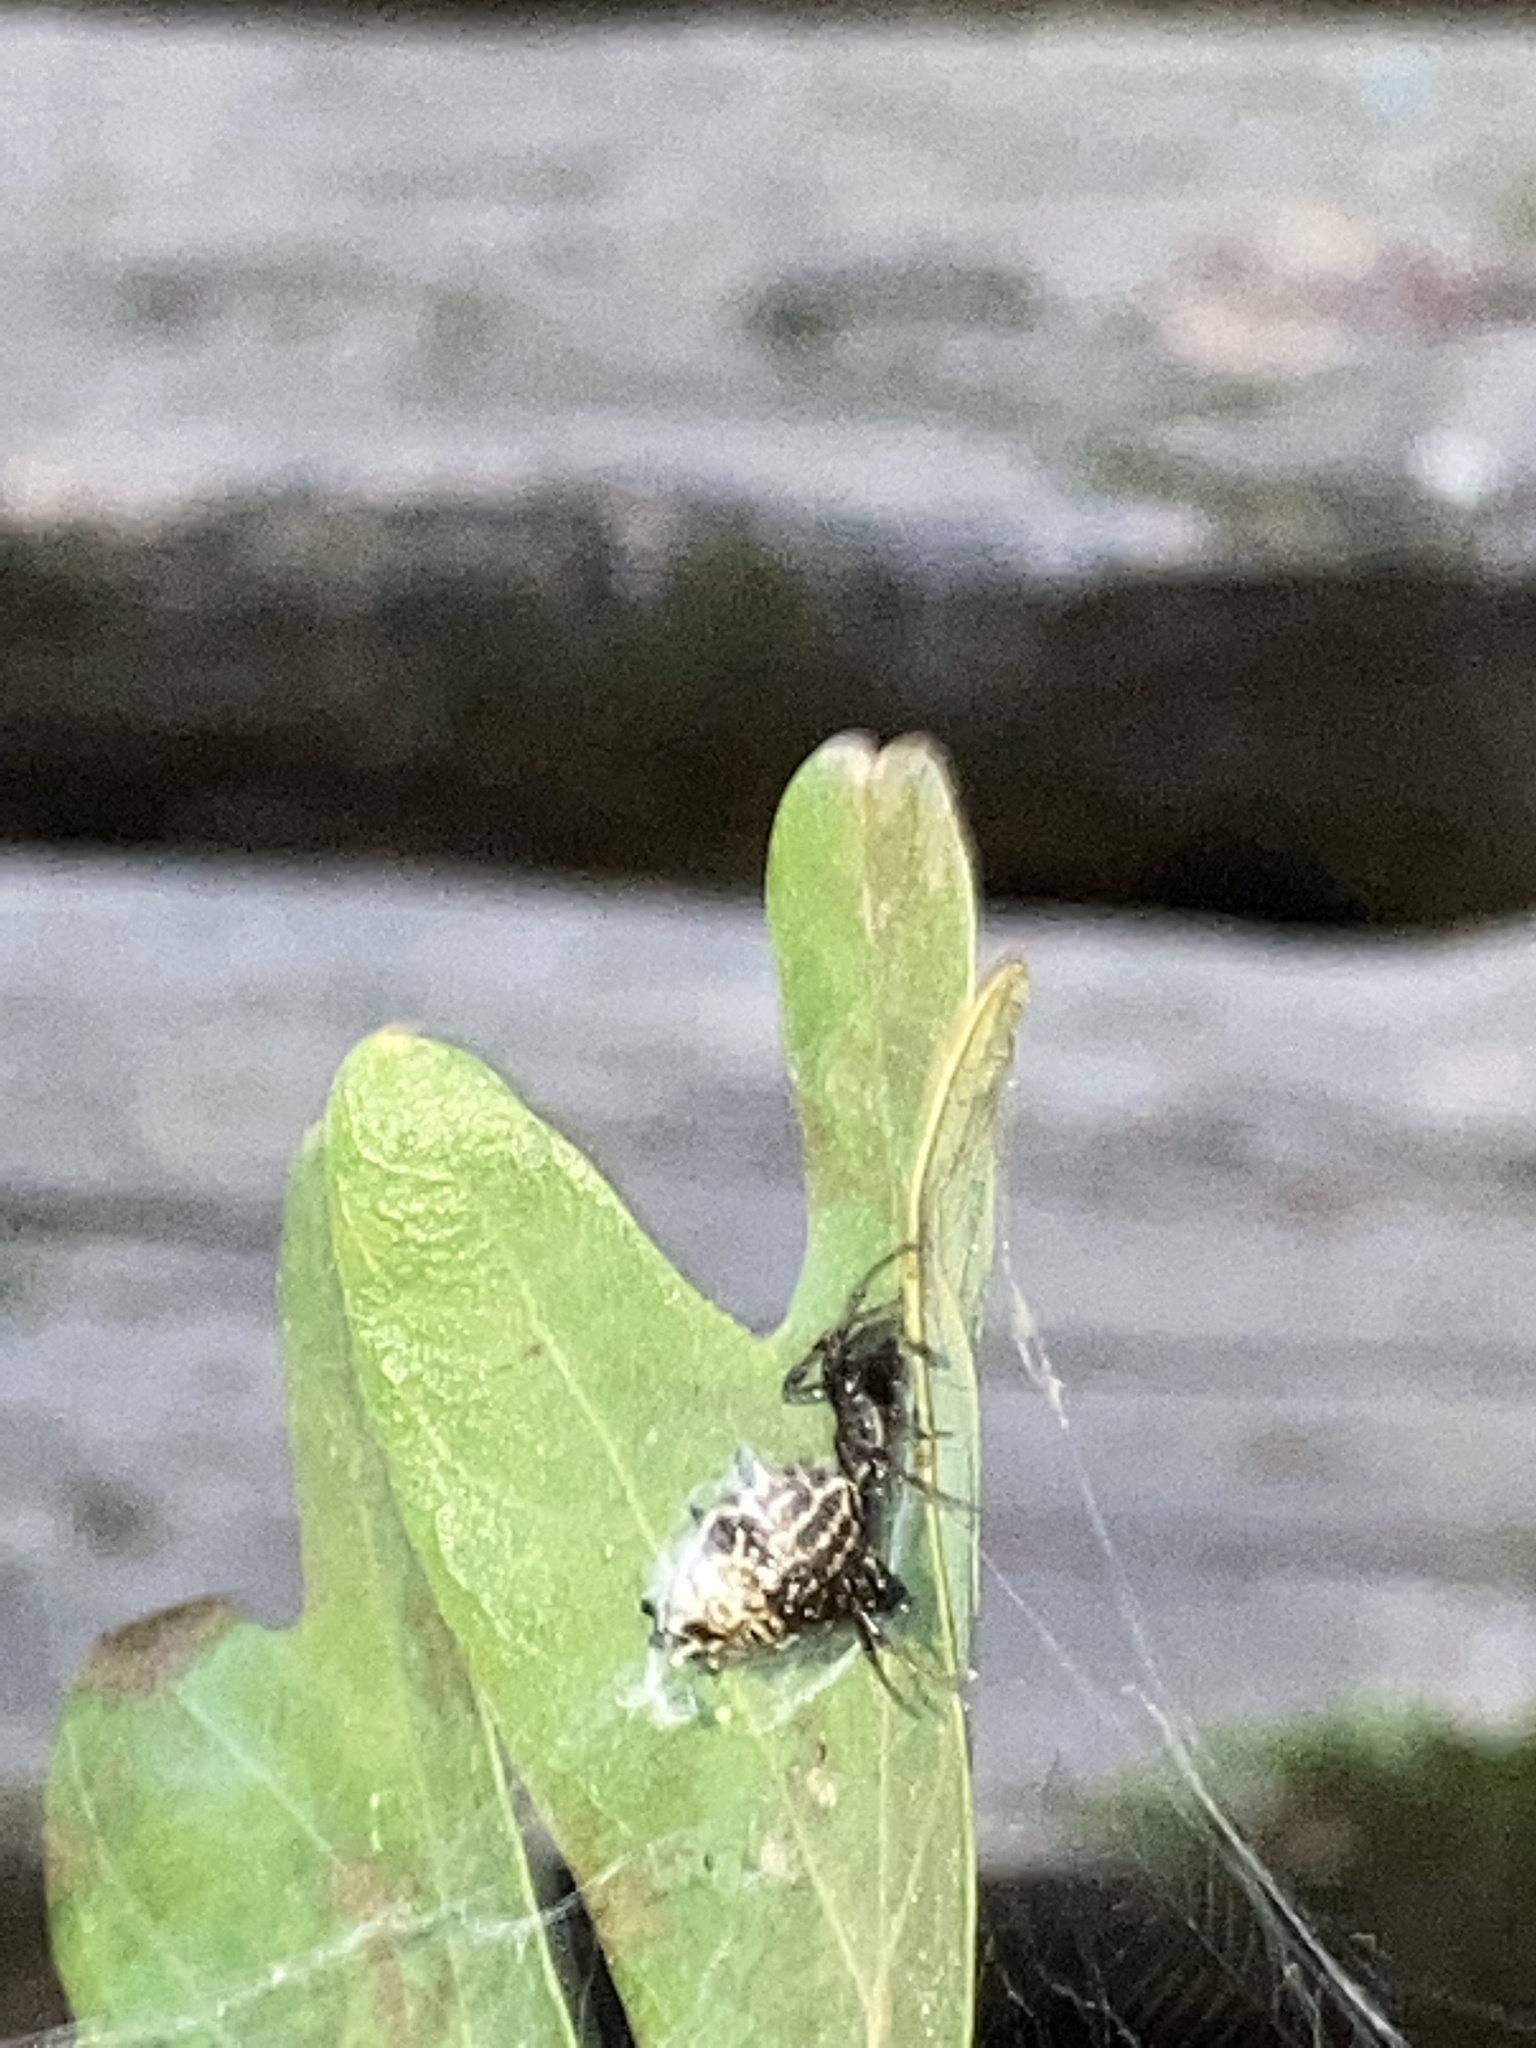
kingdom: Animalia
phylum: Arthropoda
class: Arachnida
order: Araneae
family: Araneidae
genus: Micrathena
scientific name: Micrathena gracilis
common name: Orb weavers
